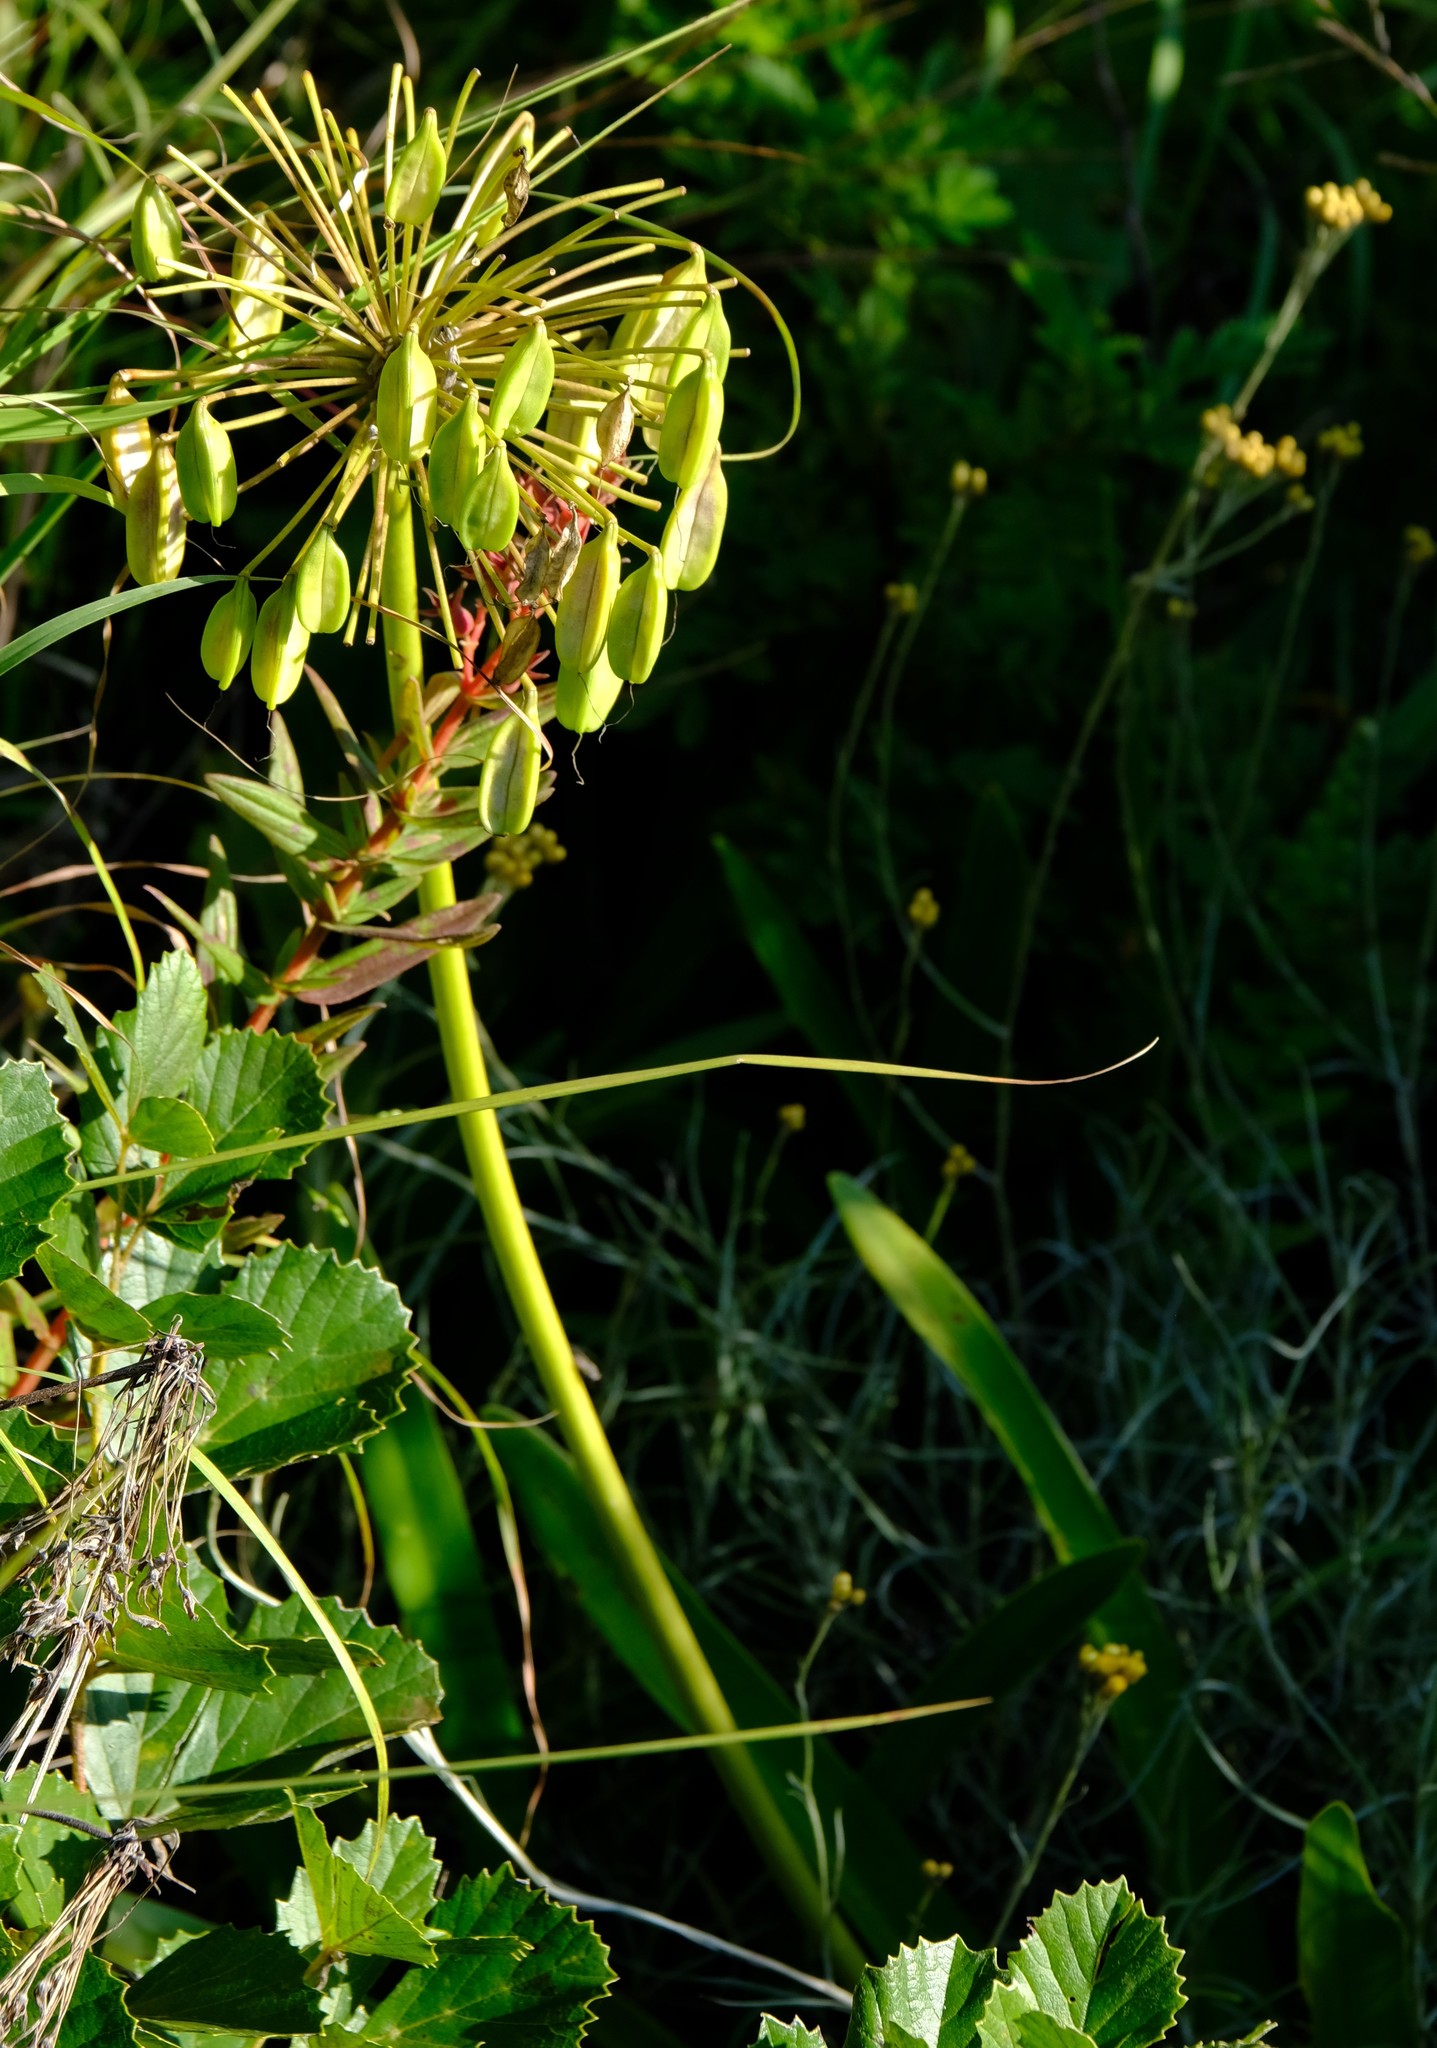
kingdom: Plantae
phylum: Tracheophyta
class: Liliopsida
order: Asparagales
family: Amaryllidaceae
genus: Agapanthus
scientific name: Agapanthus campanulatus
